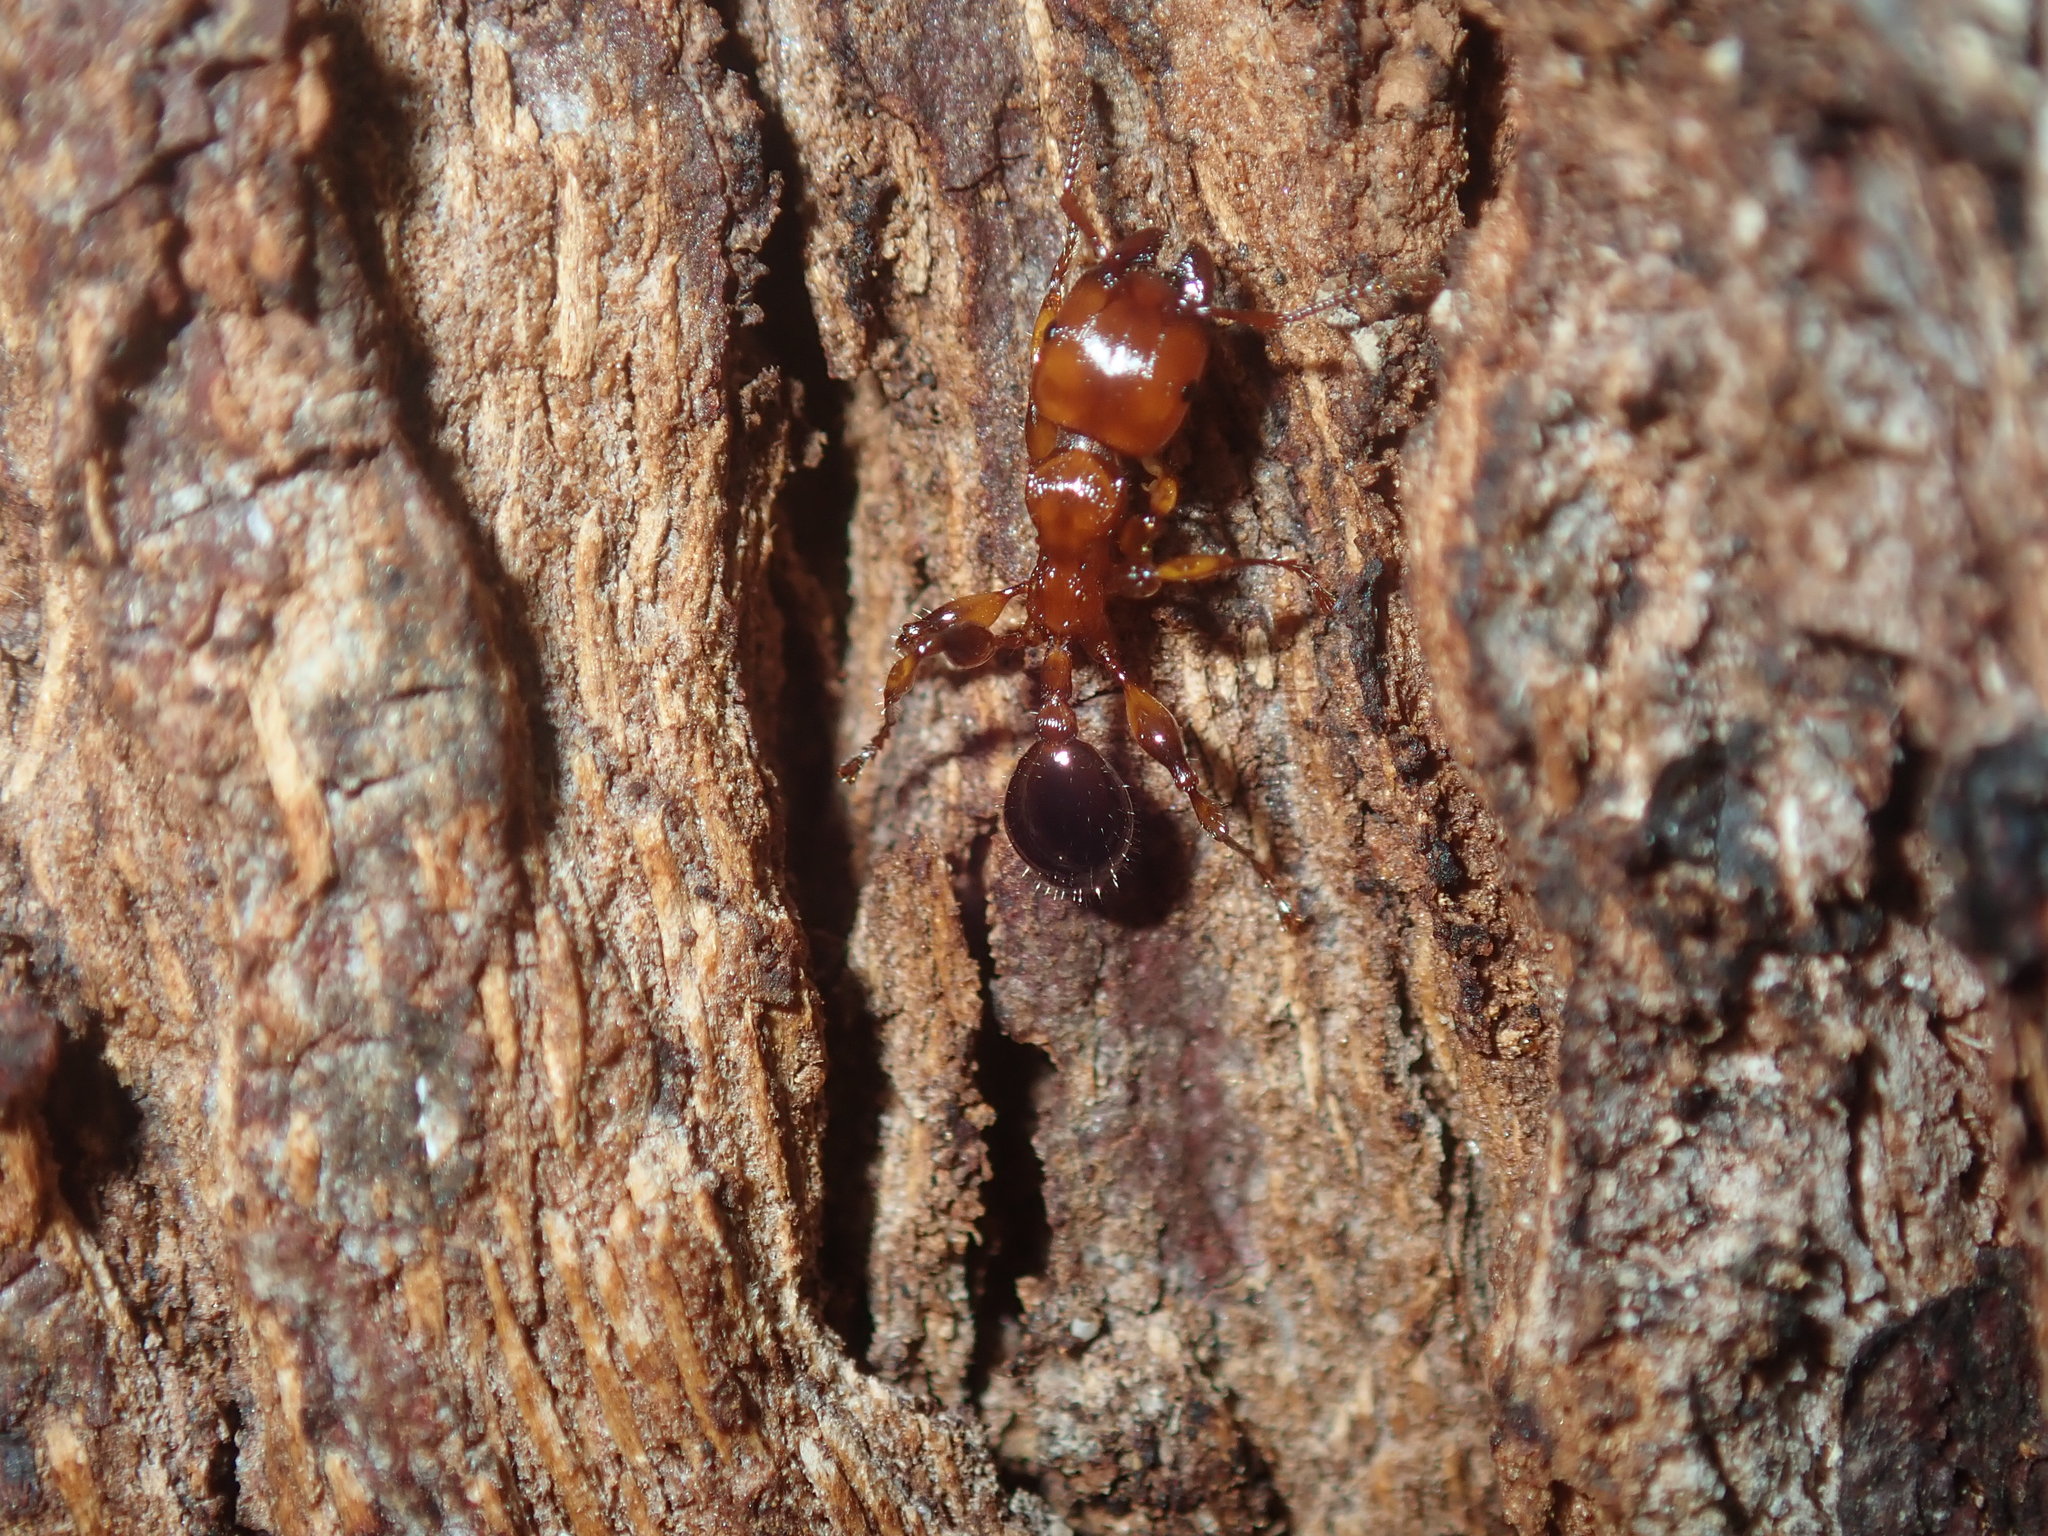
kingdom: Animalia
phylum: Arthropoda
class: Insecta
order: Hymenoptera
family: Formicidae
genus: Podomyrma
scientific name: Podomyrma gratiosa
